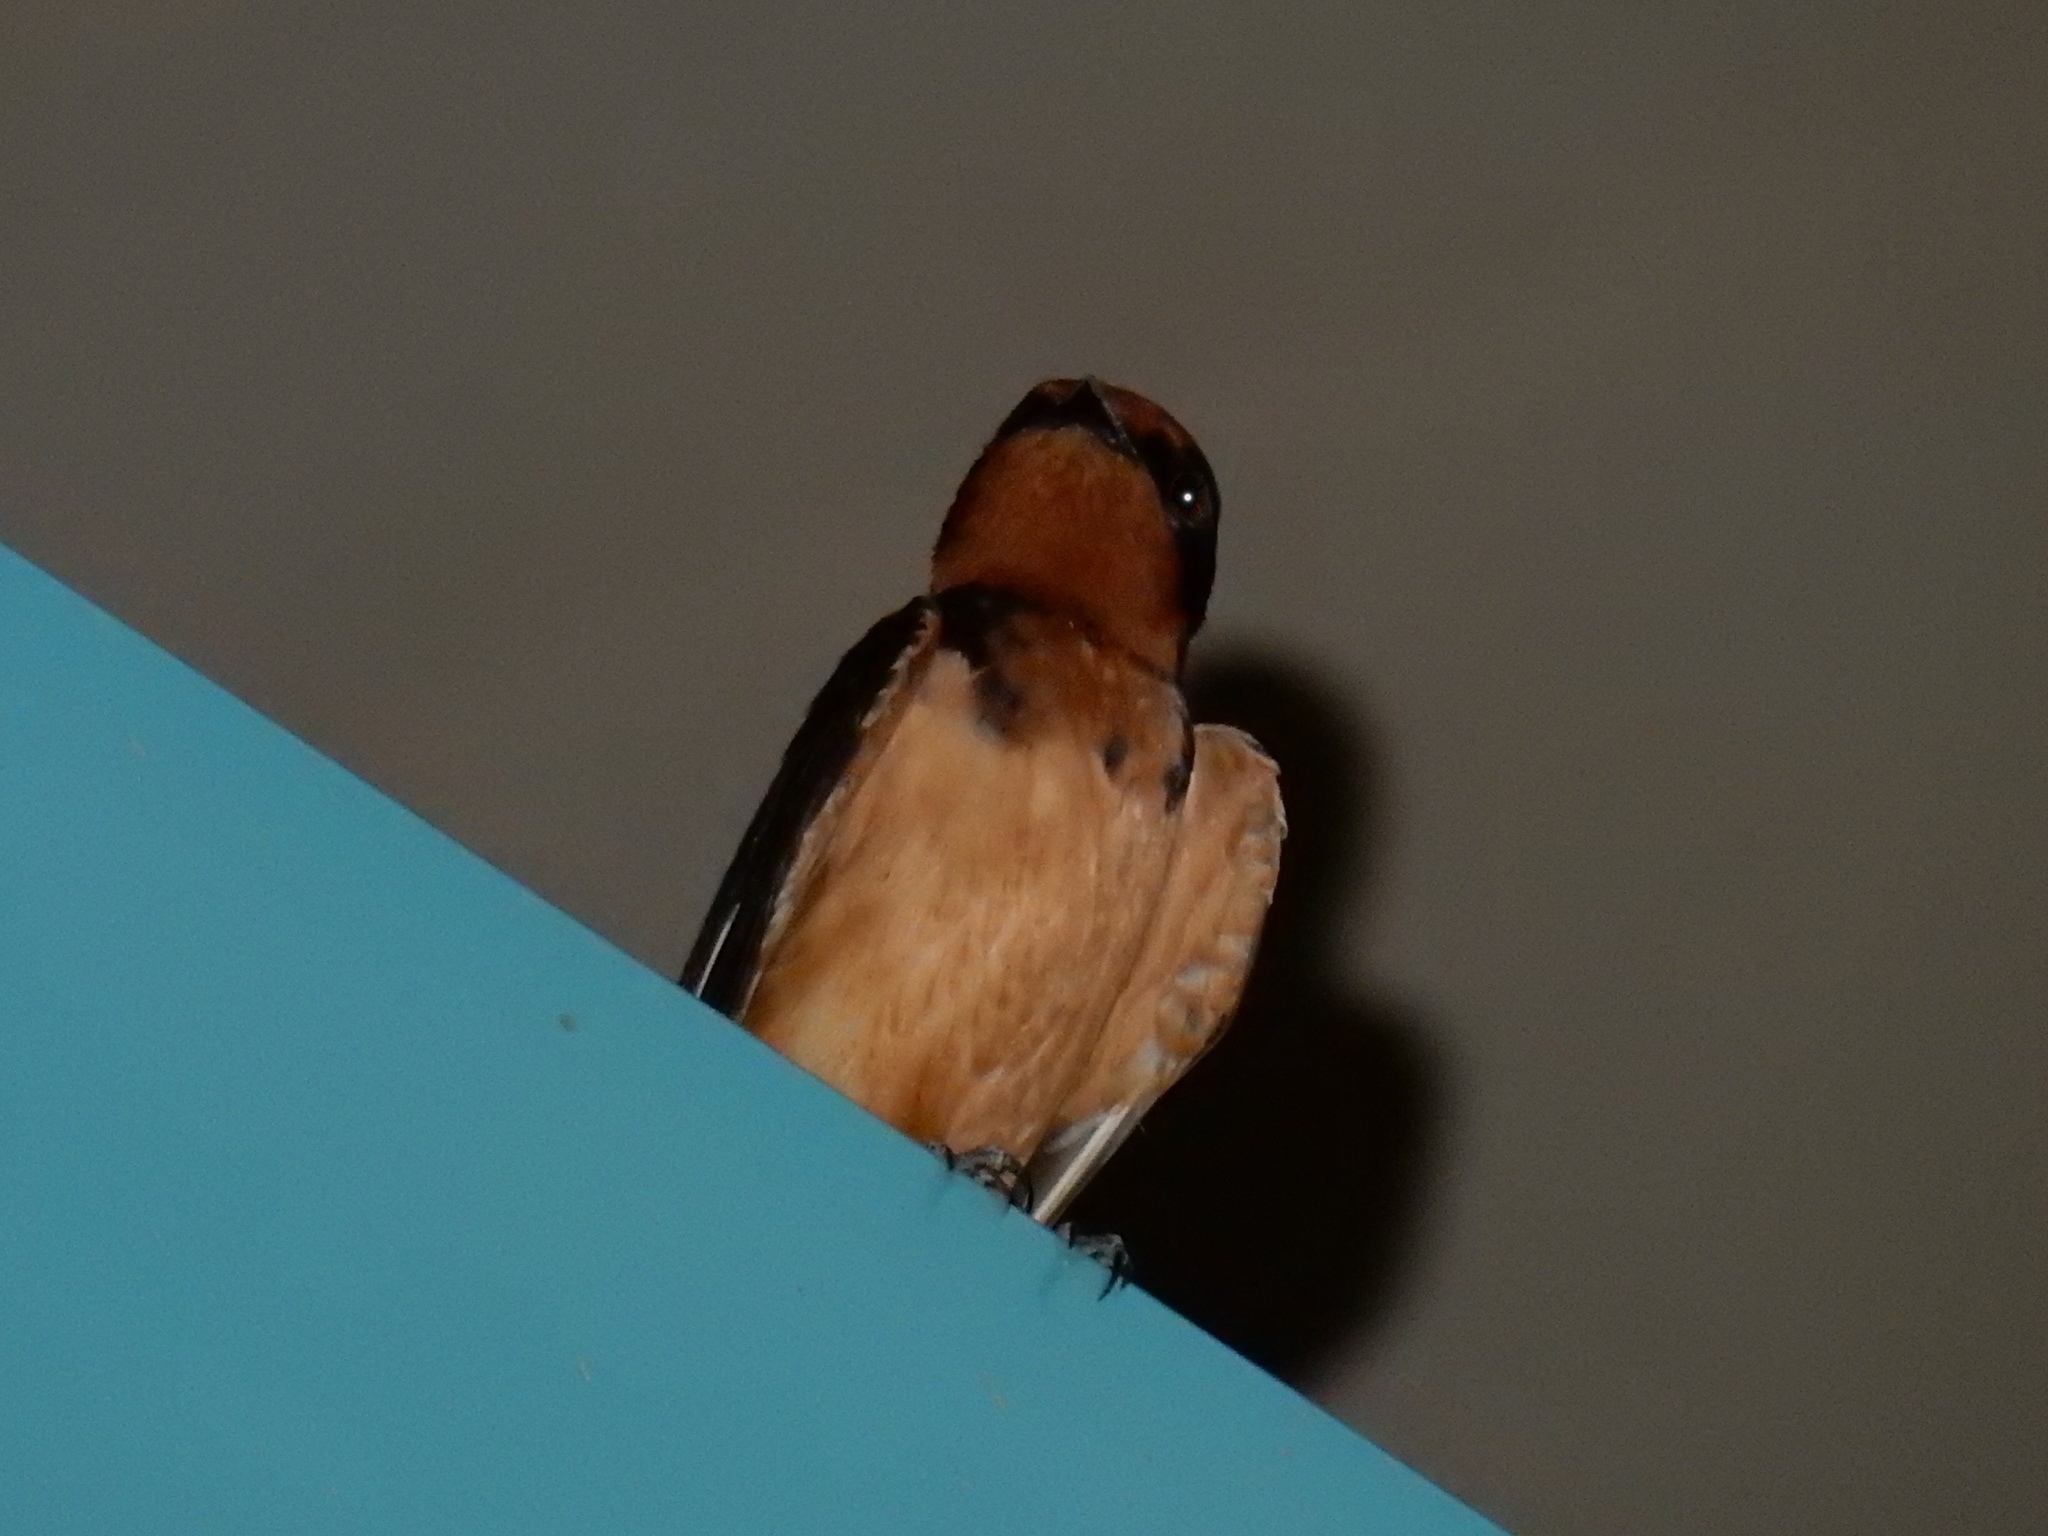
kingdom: Animalia
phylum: Chordata
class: Aves
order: Passeriformes
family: Hirundinidae
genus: Hirundo
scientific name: Hirundo rustica
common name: Barn swallow
